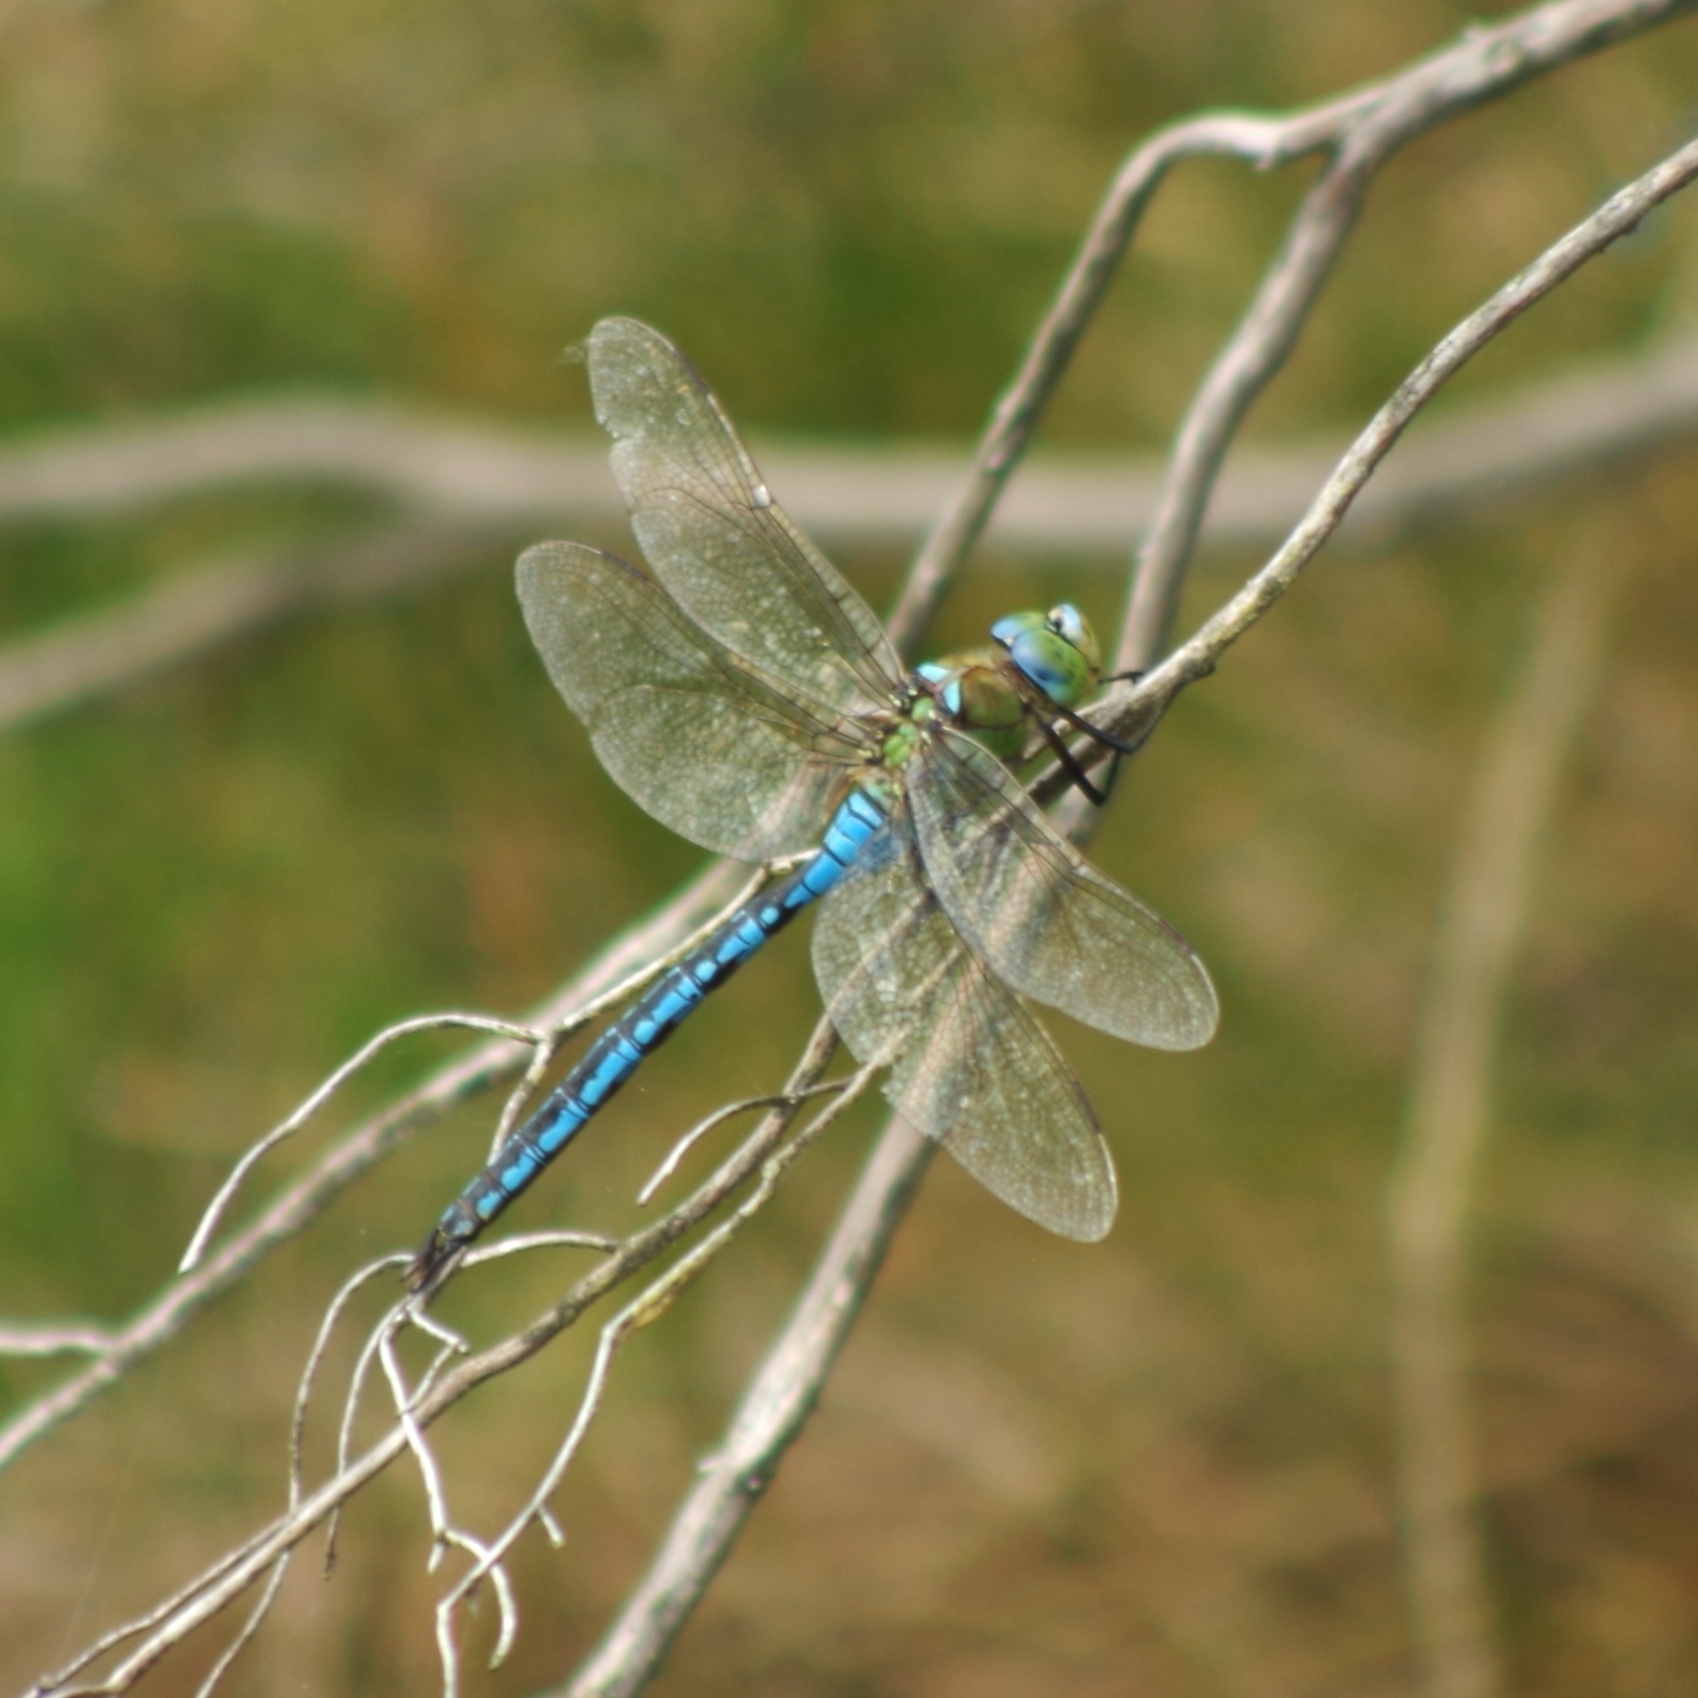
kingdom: Animalia
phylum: Arthropoda
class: Insecta
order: Odonata
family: Aeshnidae
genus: Anax
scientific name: Anax imperator
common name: Emperor dragonfly
